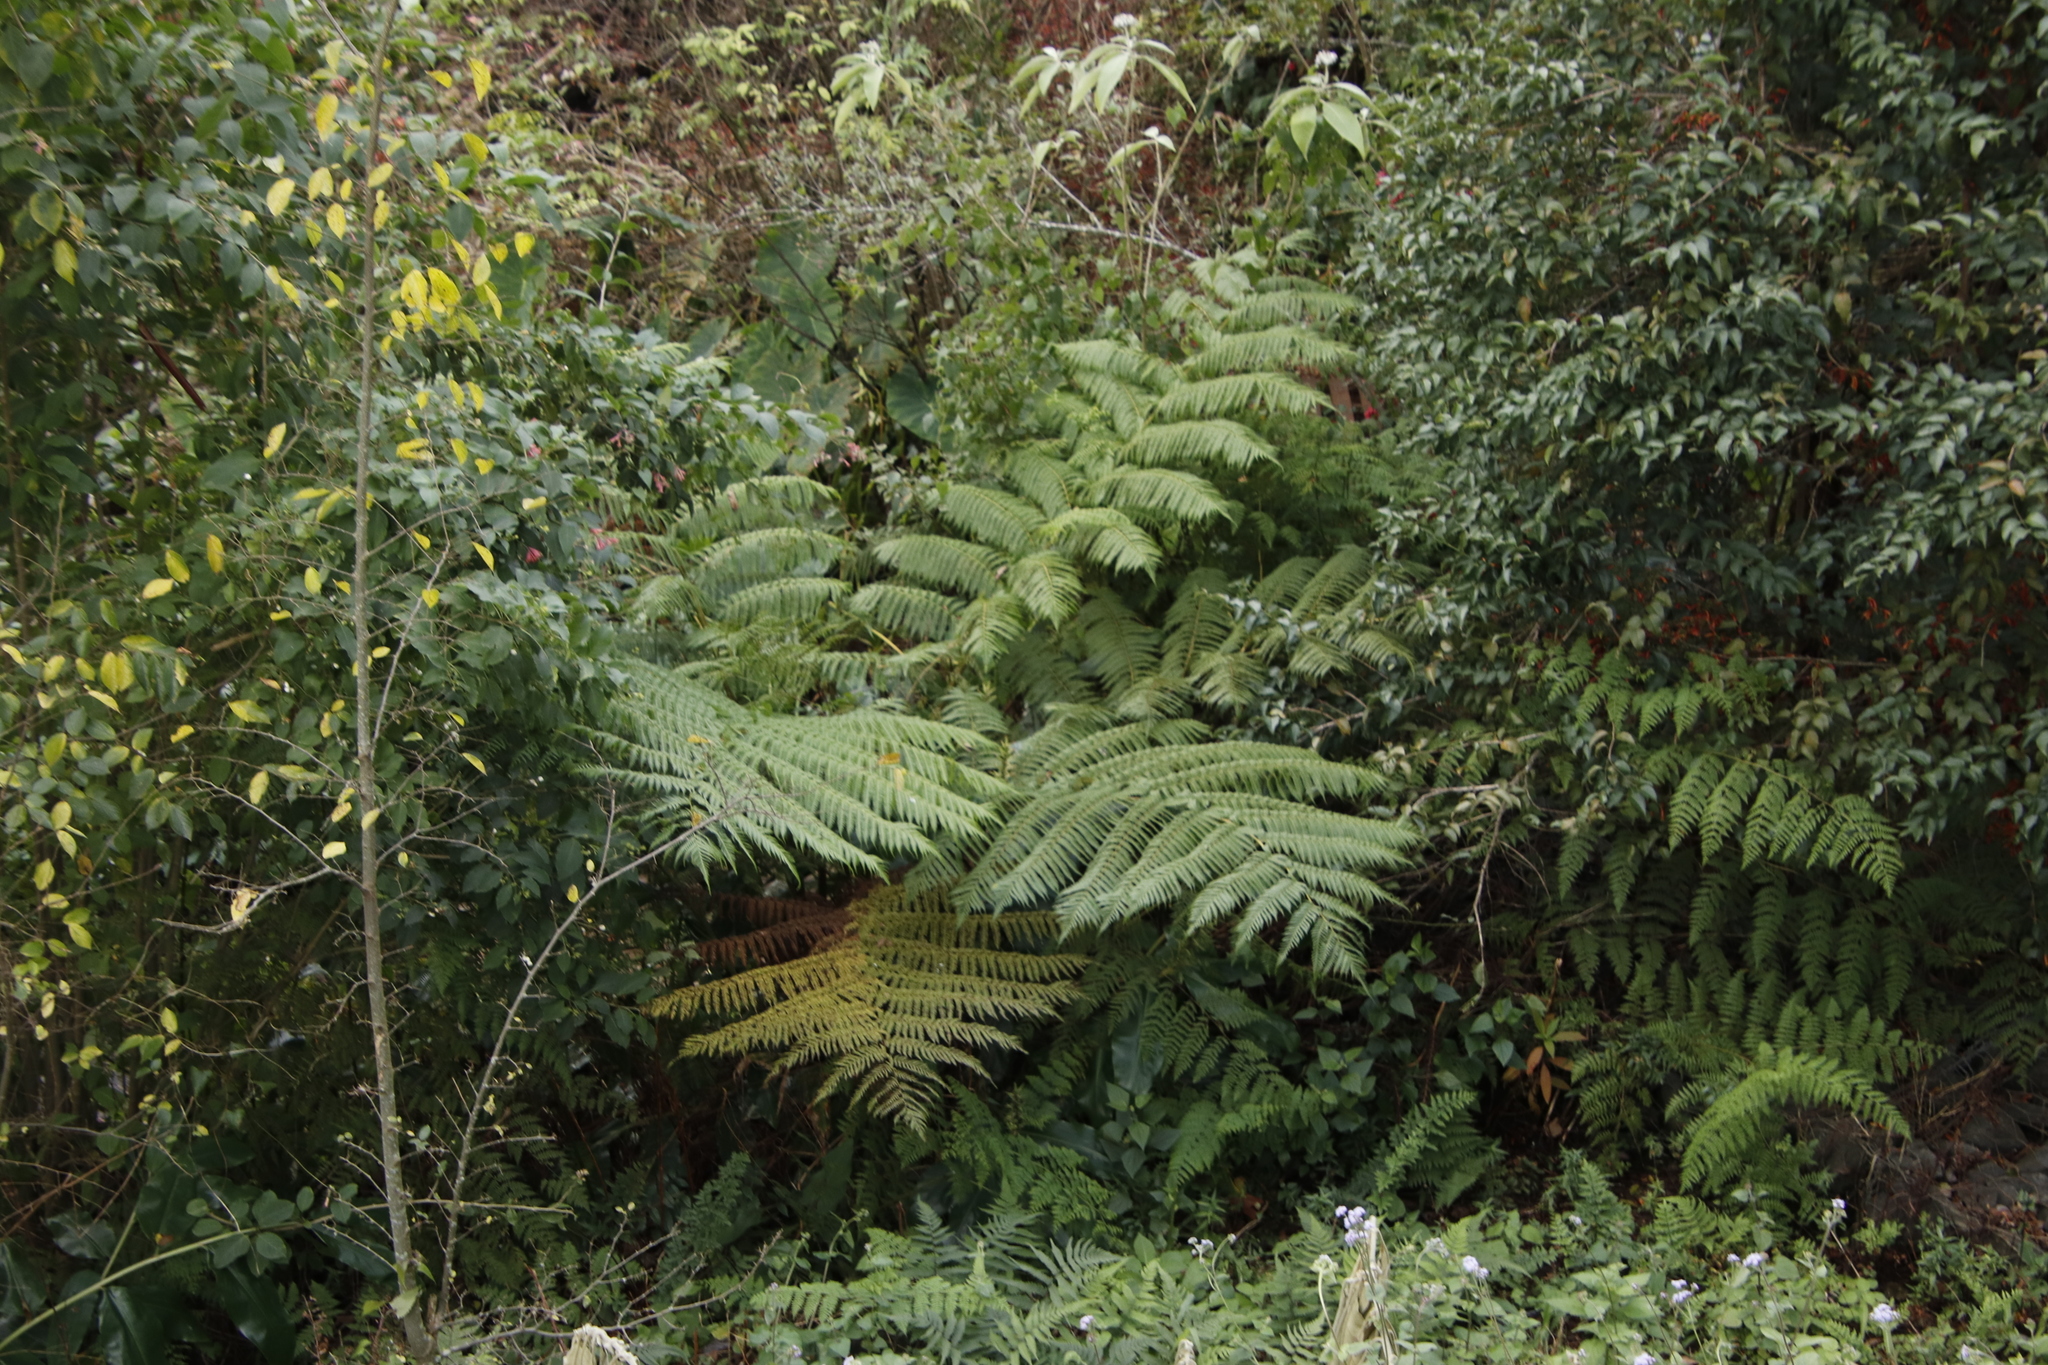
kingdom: Plantae
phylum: Tracheophyta
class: Polypodiopsida
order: Cyatheales
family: Cyatheaceae
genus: Sphaeropteris
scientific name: Sphaeropteris cooperi
